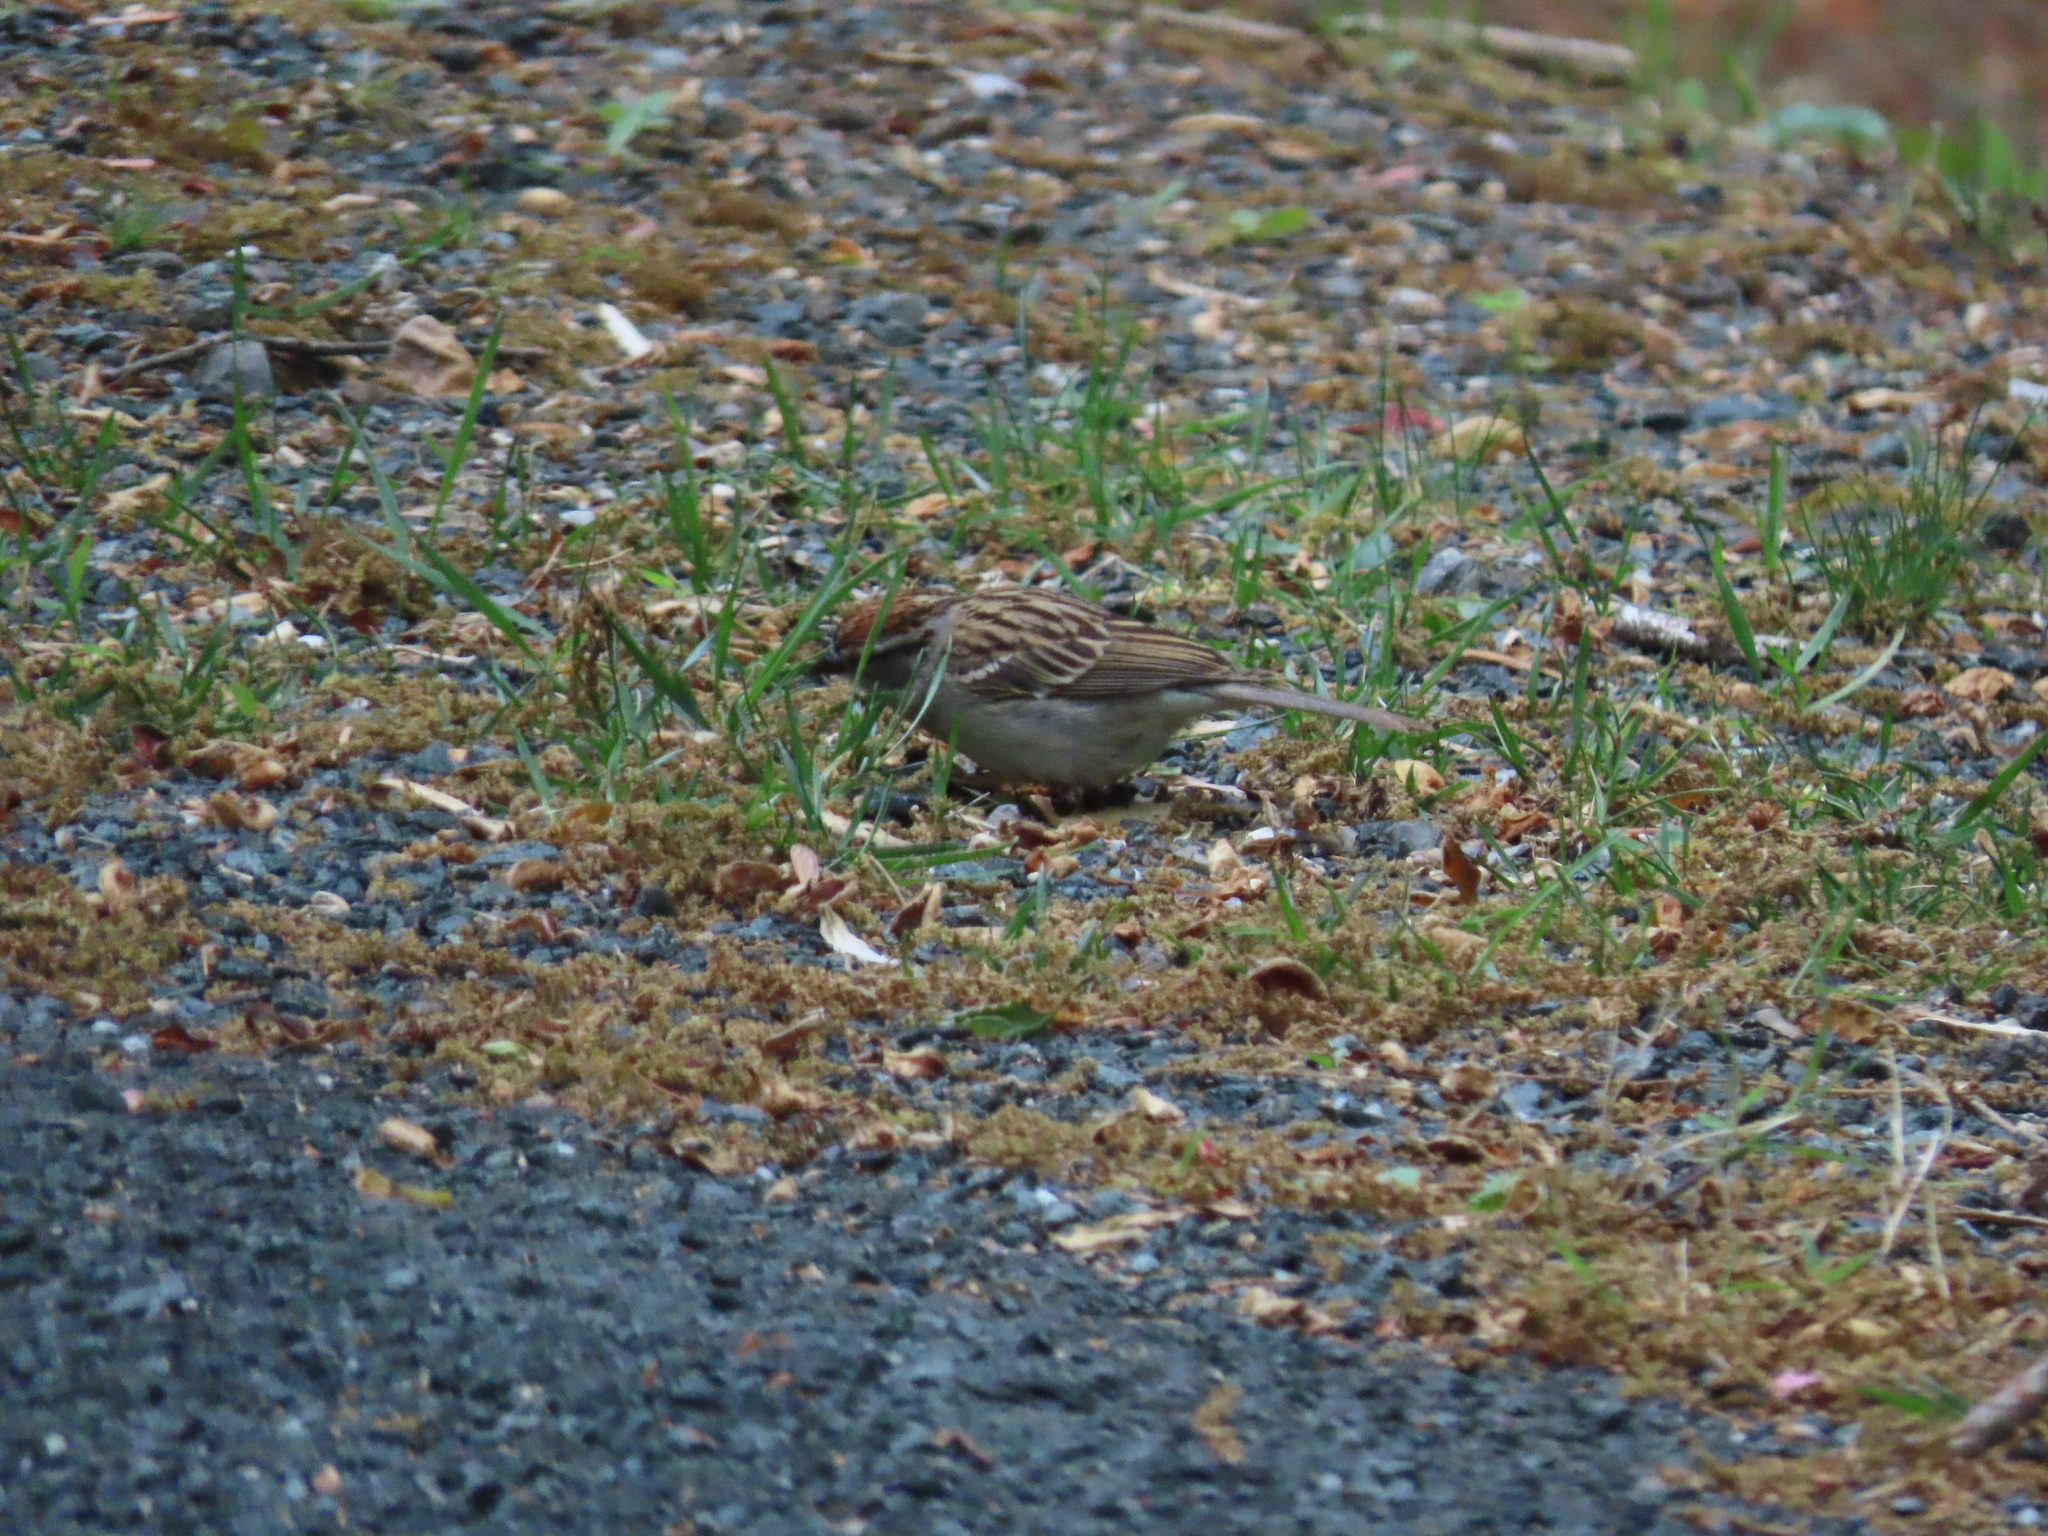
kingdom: Animalia
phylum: Chordata
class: Aves
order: Passeriformes
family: Passerellidae
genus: Spizella
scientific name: Spizella passerina
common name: Chipping sparrow
